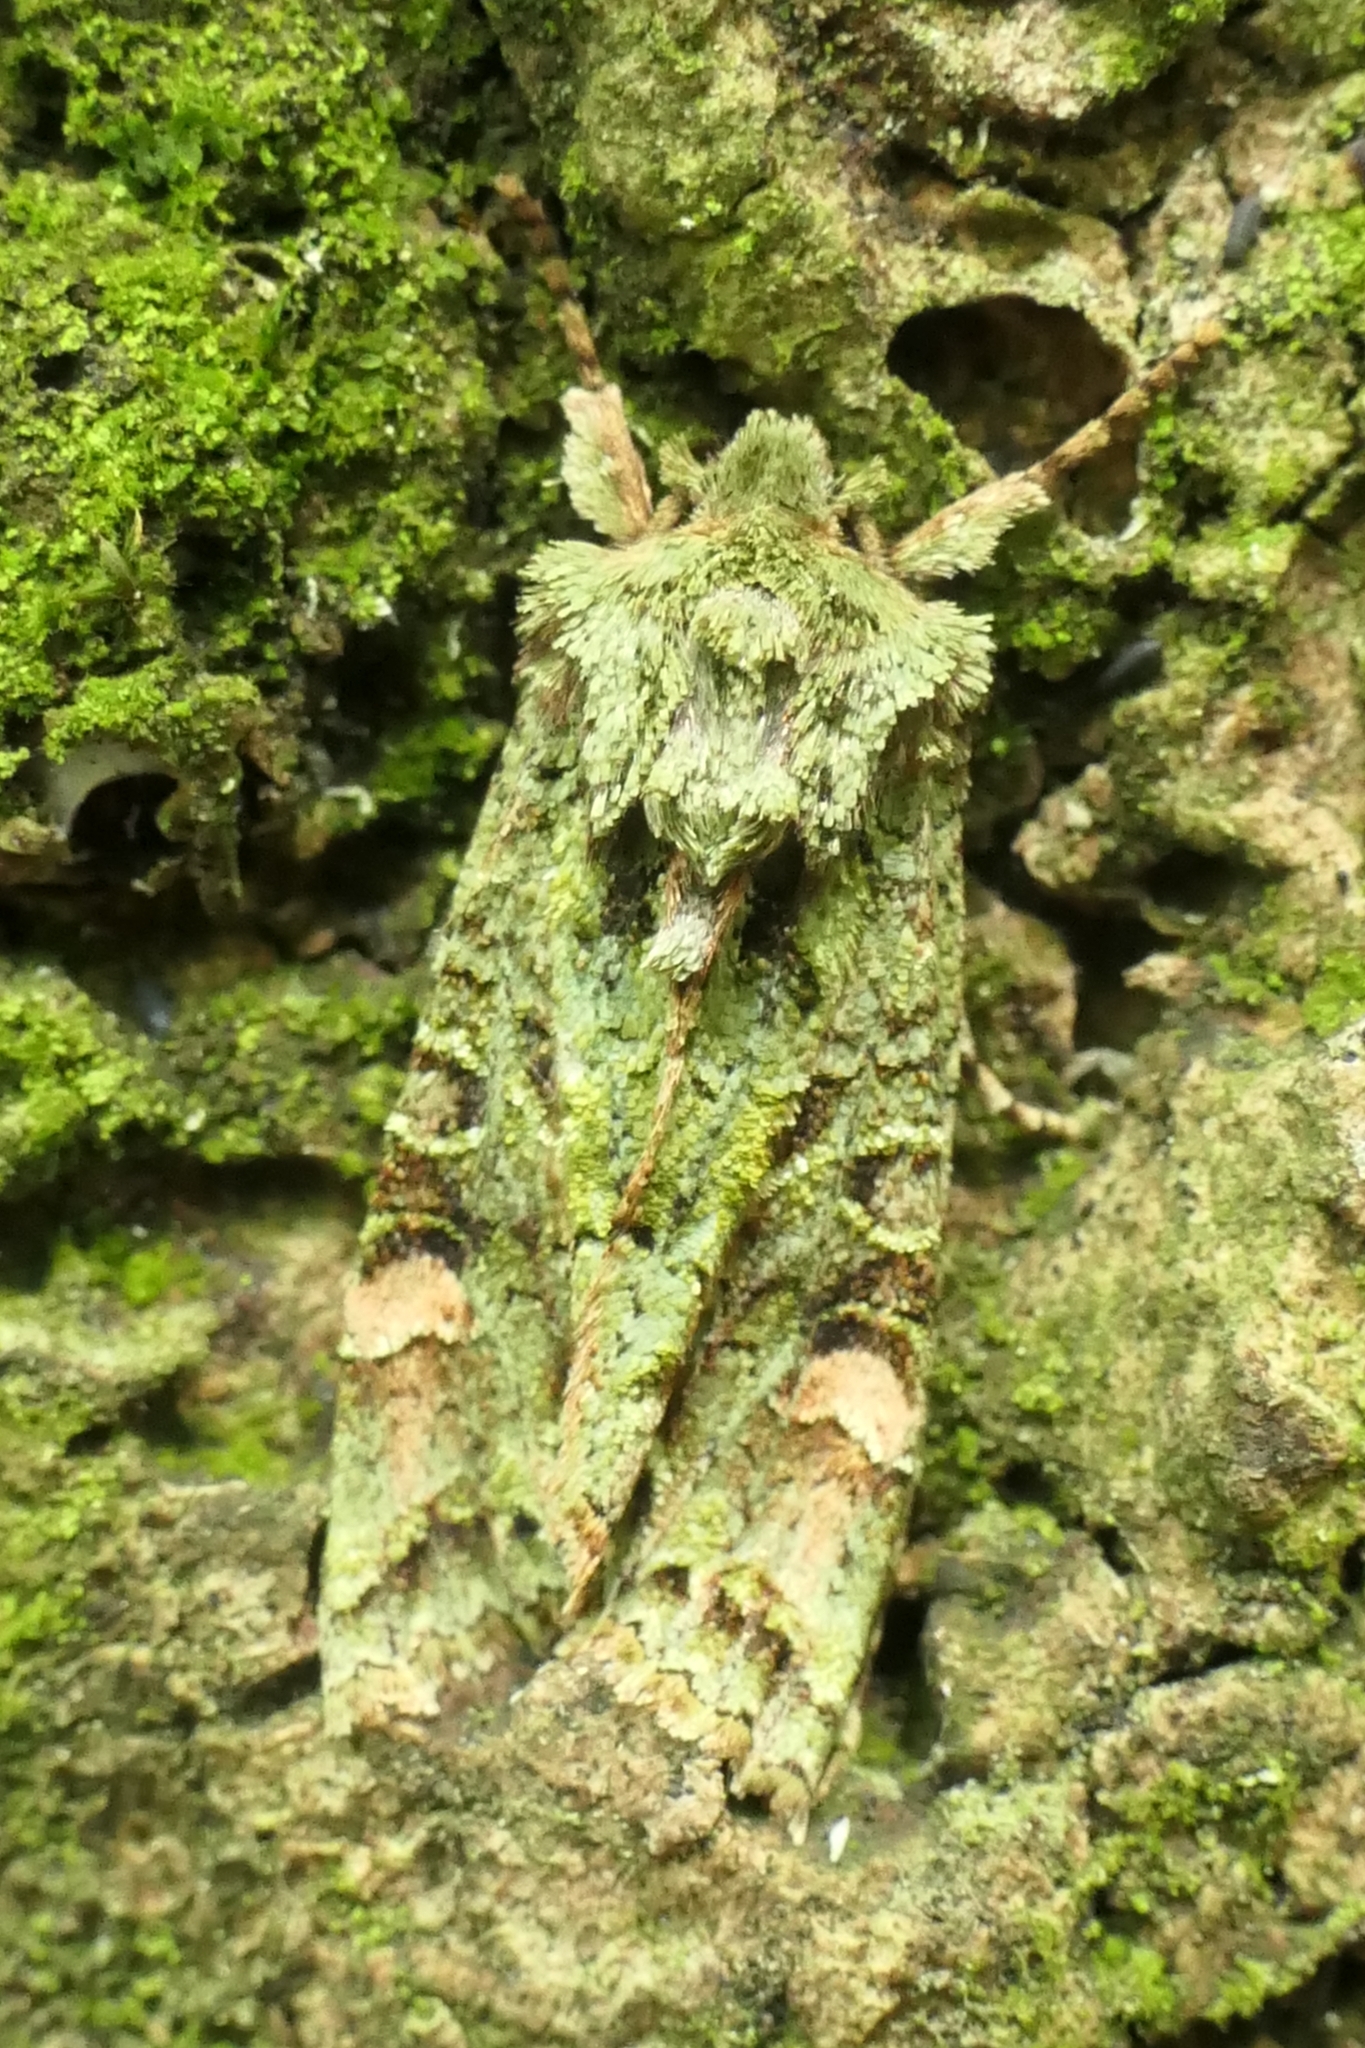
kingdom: Animalia
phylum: Arthropoda
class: Insecta
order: Lepidoptera
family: Noctuidae
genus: Ichneutica
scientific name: Ichneutica
